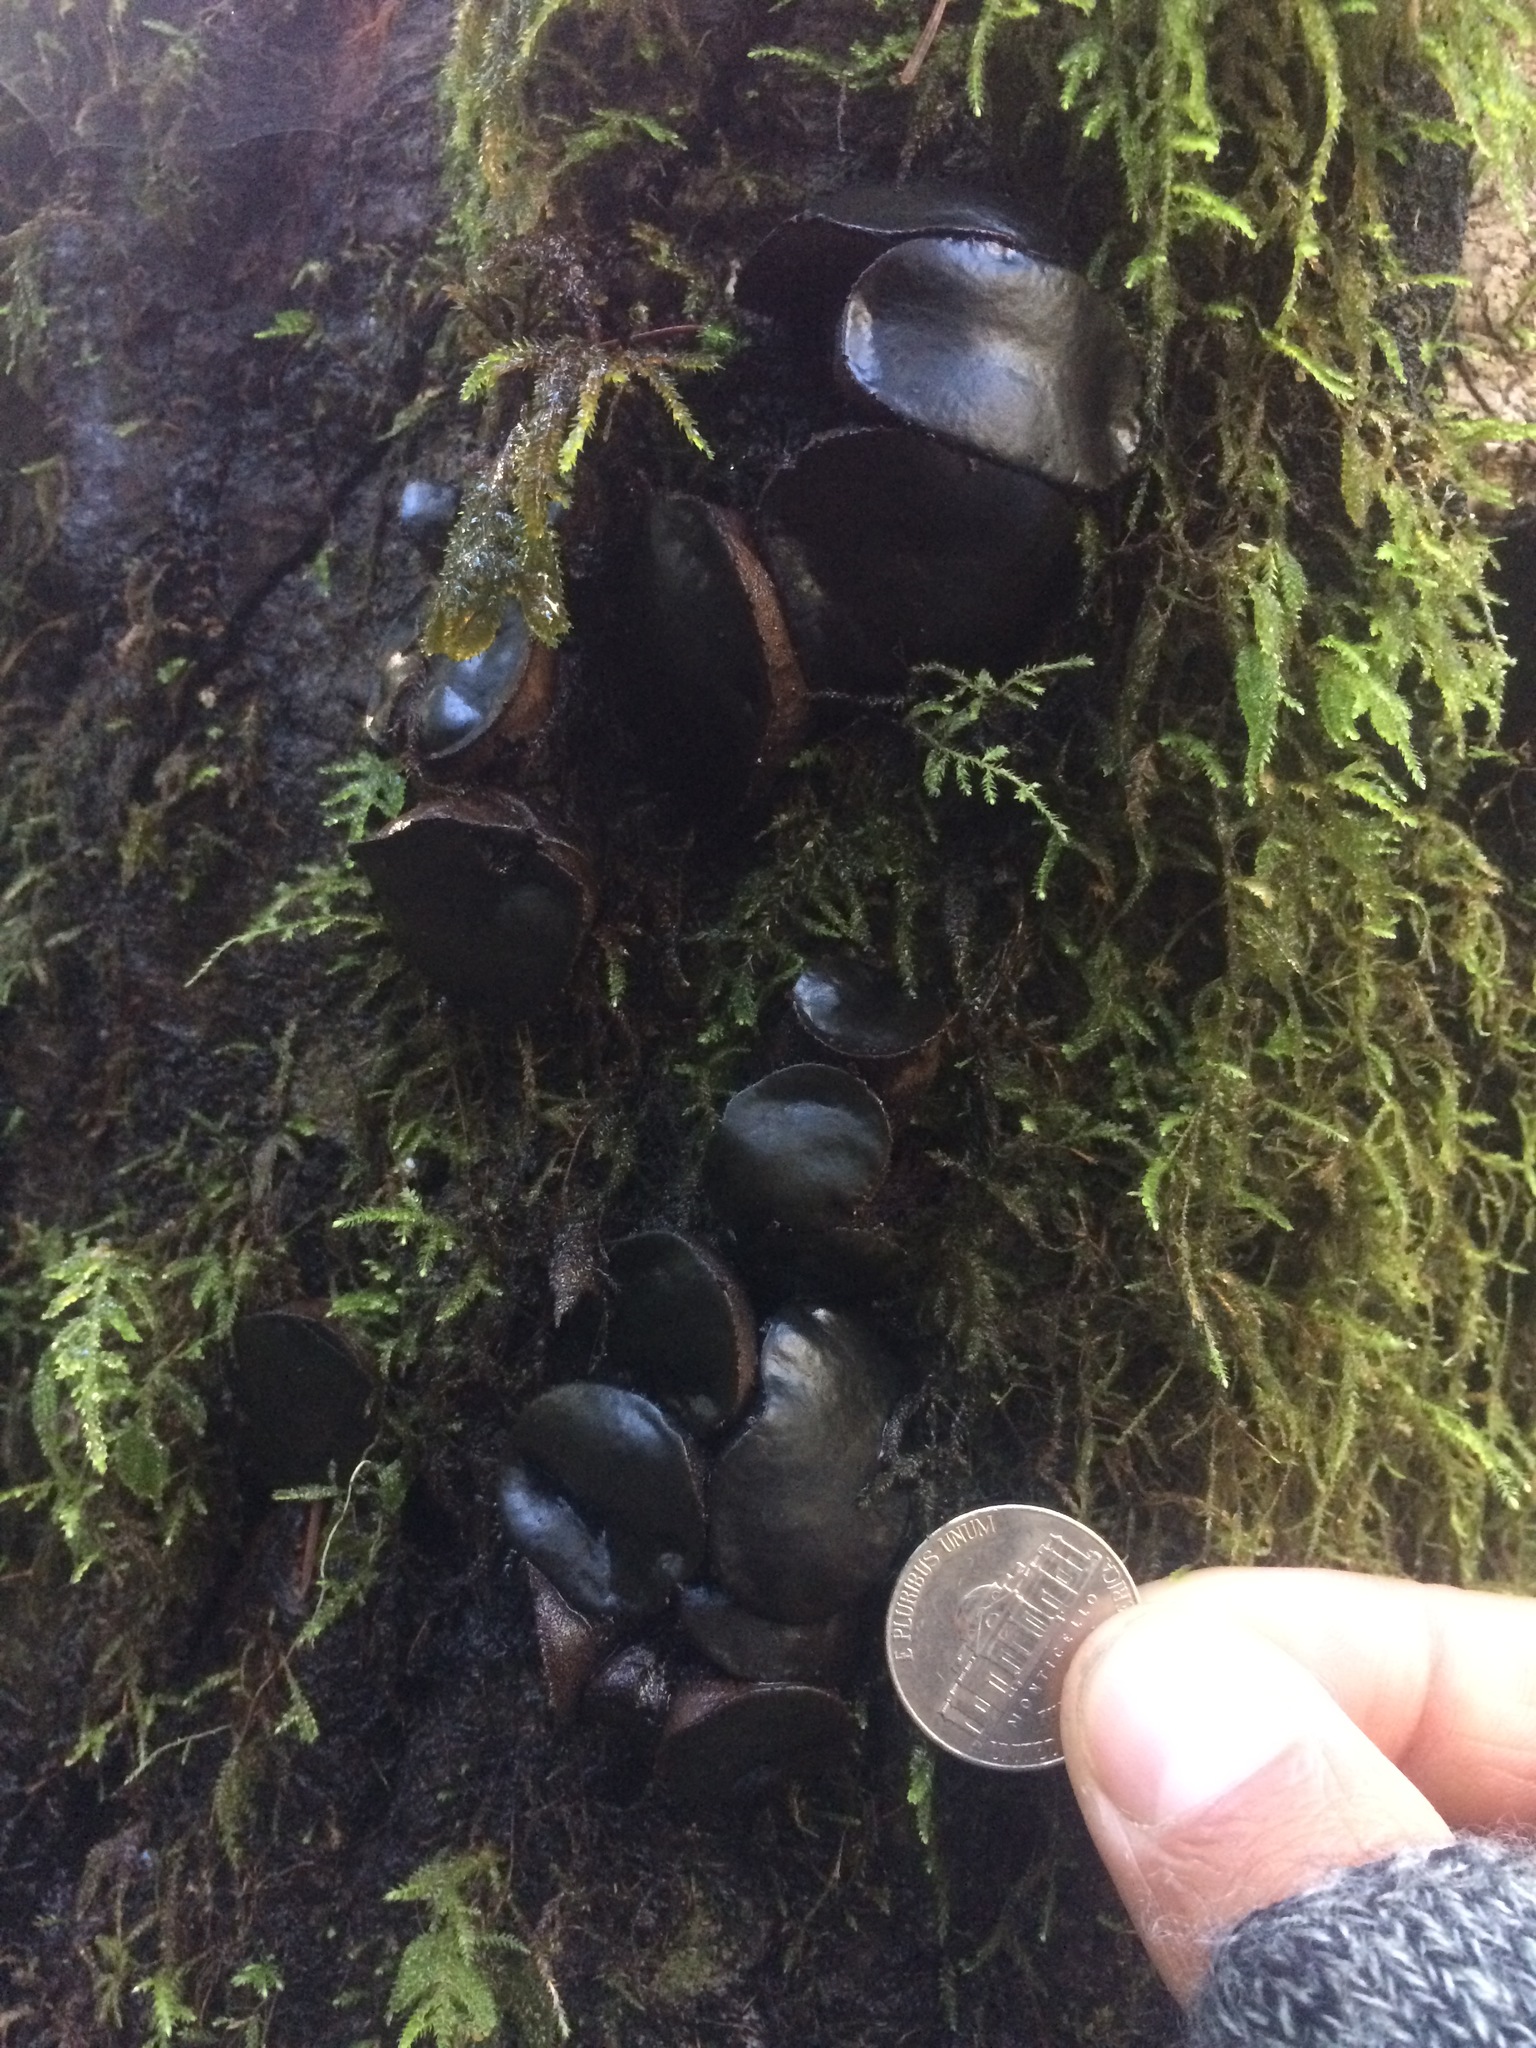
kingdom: Fungi
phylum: Ascomycota
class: Leotiomycetes
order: Phacidiales
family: Phacidiaceae
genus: Bulgaria
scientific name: Bulgaria inquinans
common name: Black bulgar
